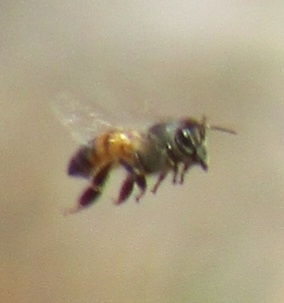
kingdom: Animalia
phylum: Arthropoda
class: Insecta
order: Hymenoptera
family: Apidae
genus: Apis
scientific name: Apis mellifera
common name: Honey bee
